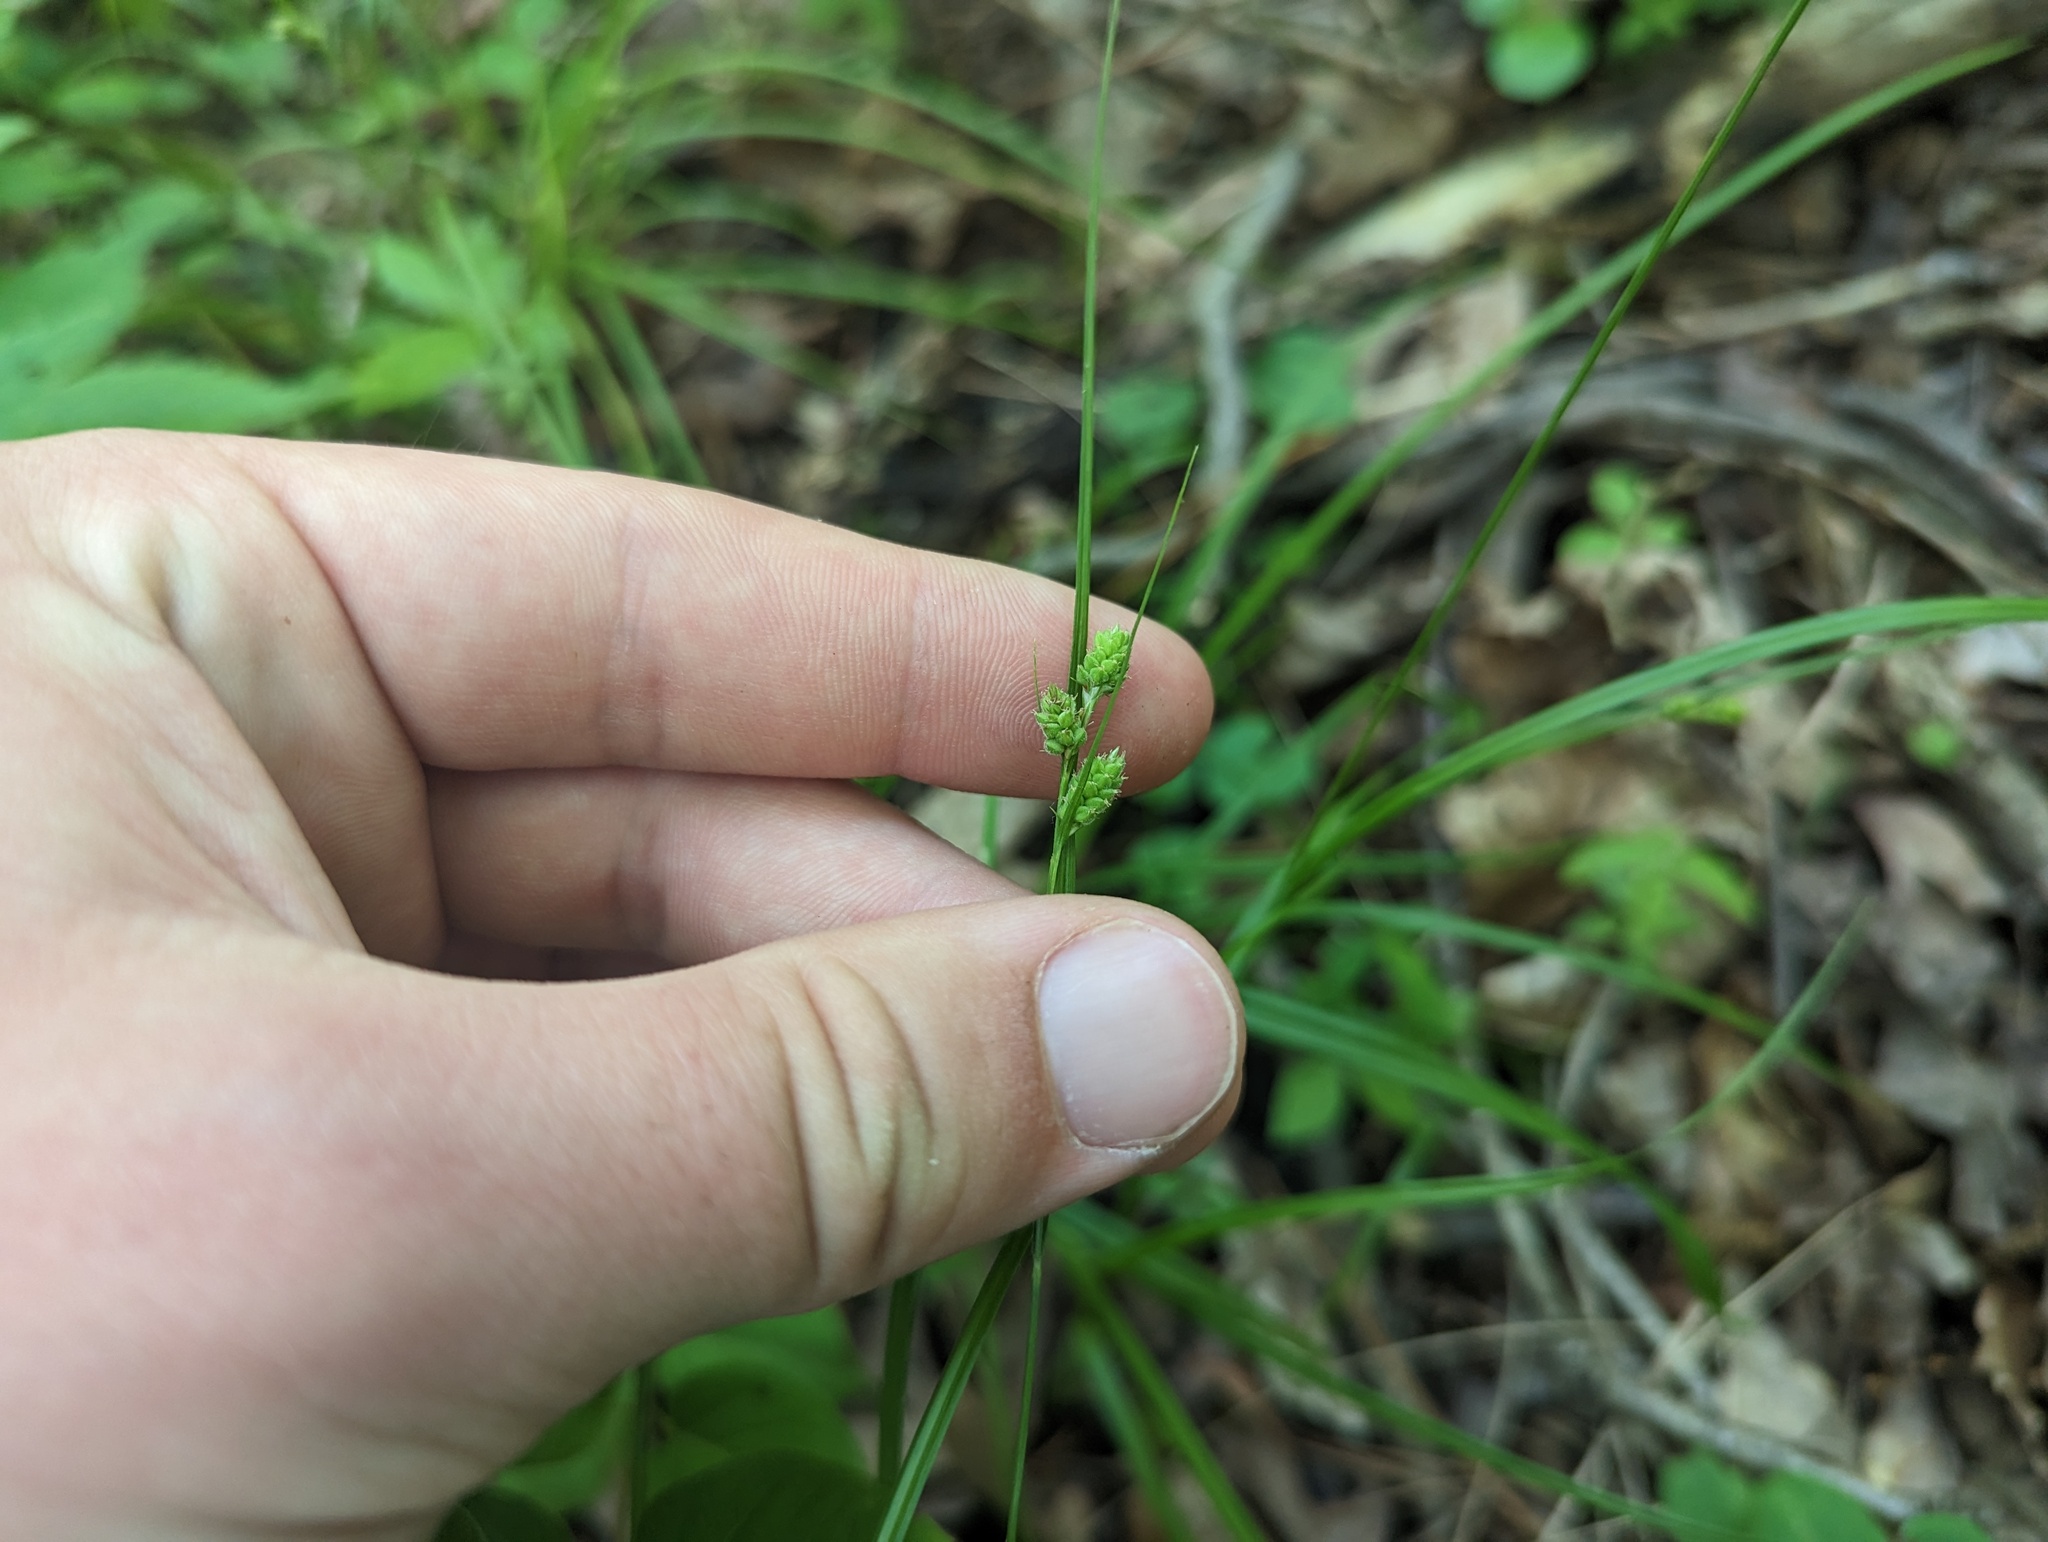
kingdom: Plantae
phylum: Tracheophyta
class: Liliopsida
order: Poales
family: Cyperaceae
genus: Carex
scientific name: Carex swanii
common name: Downy green sedge
